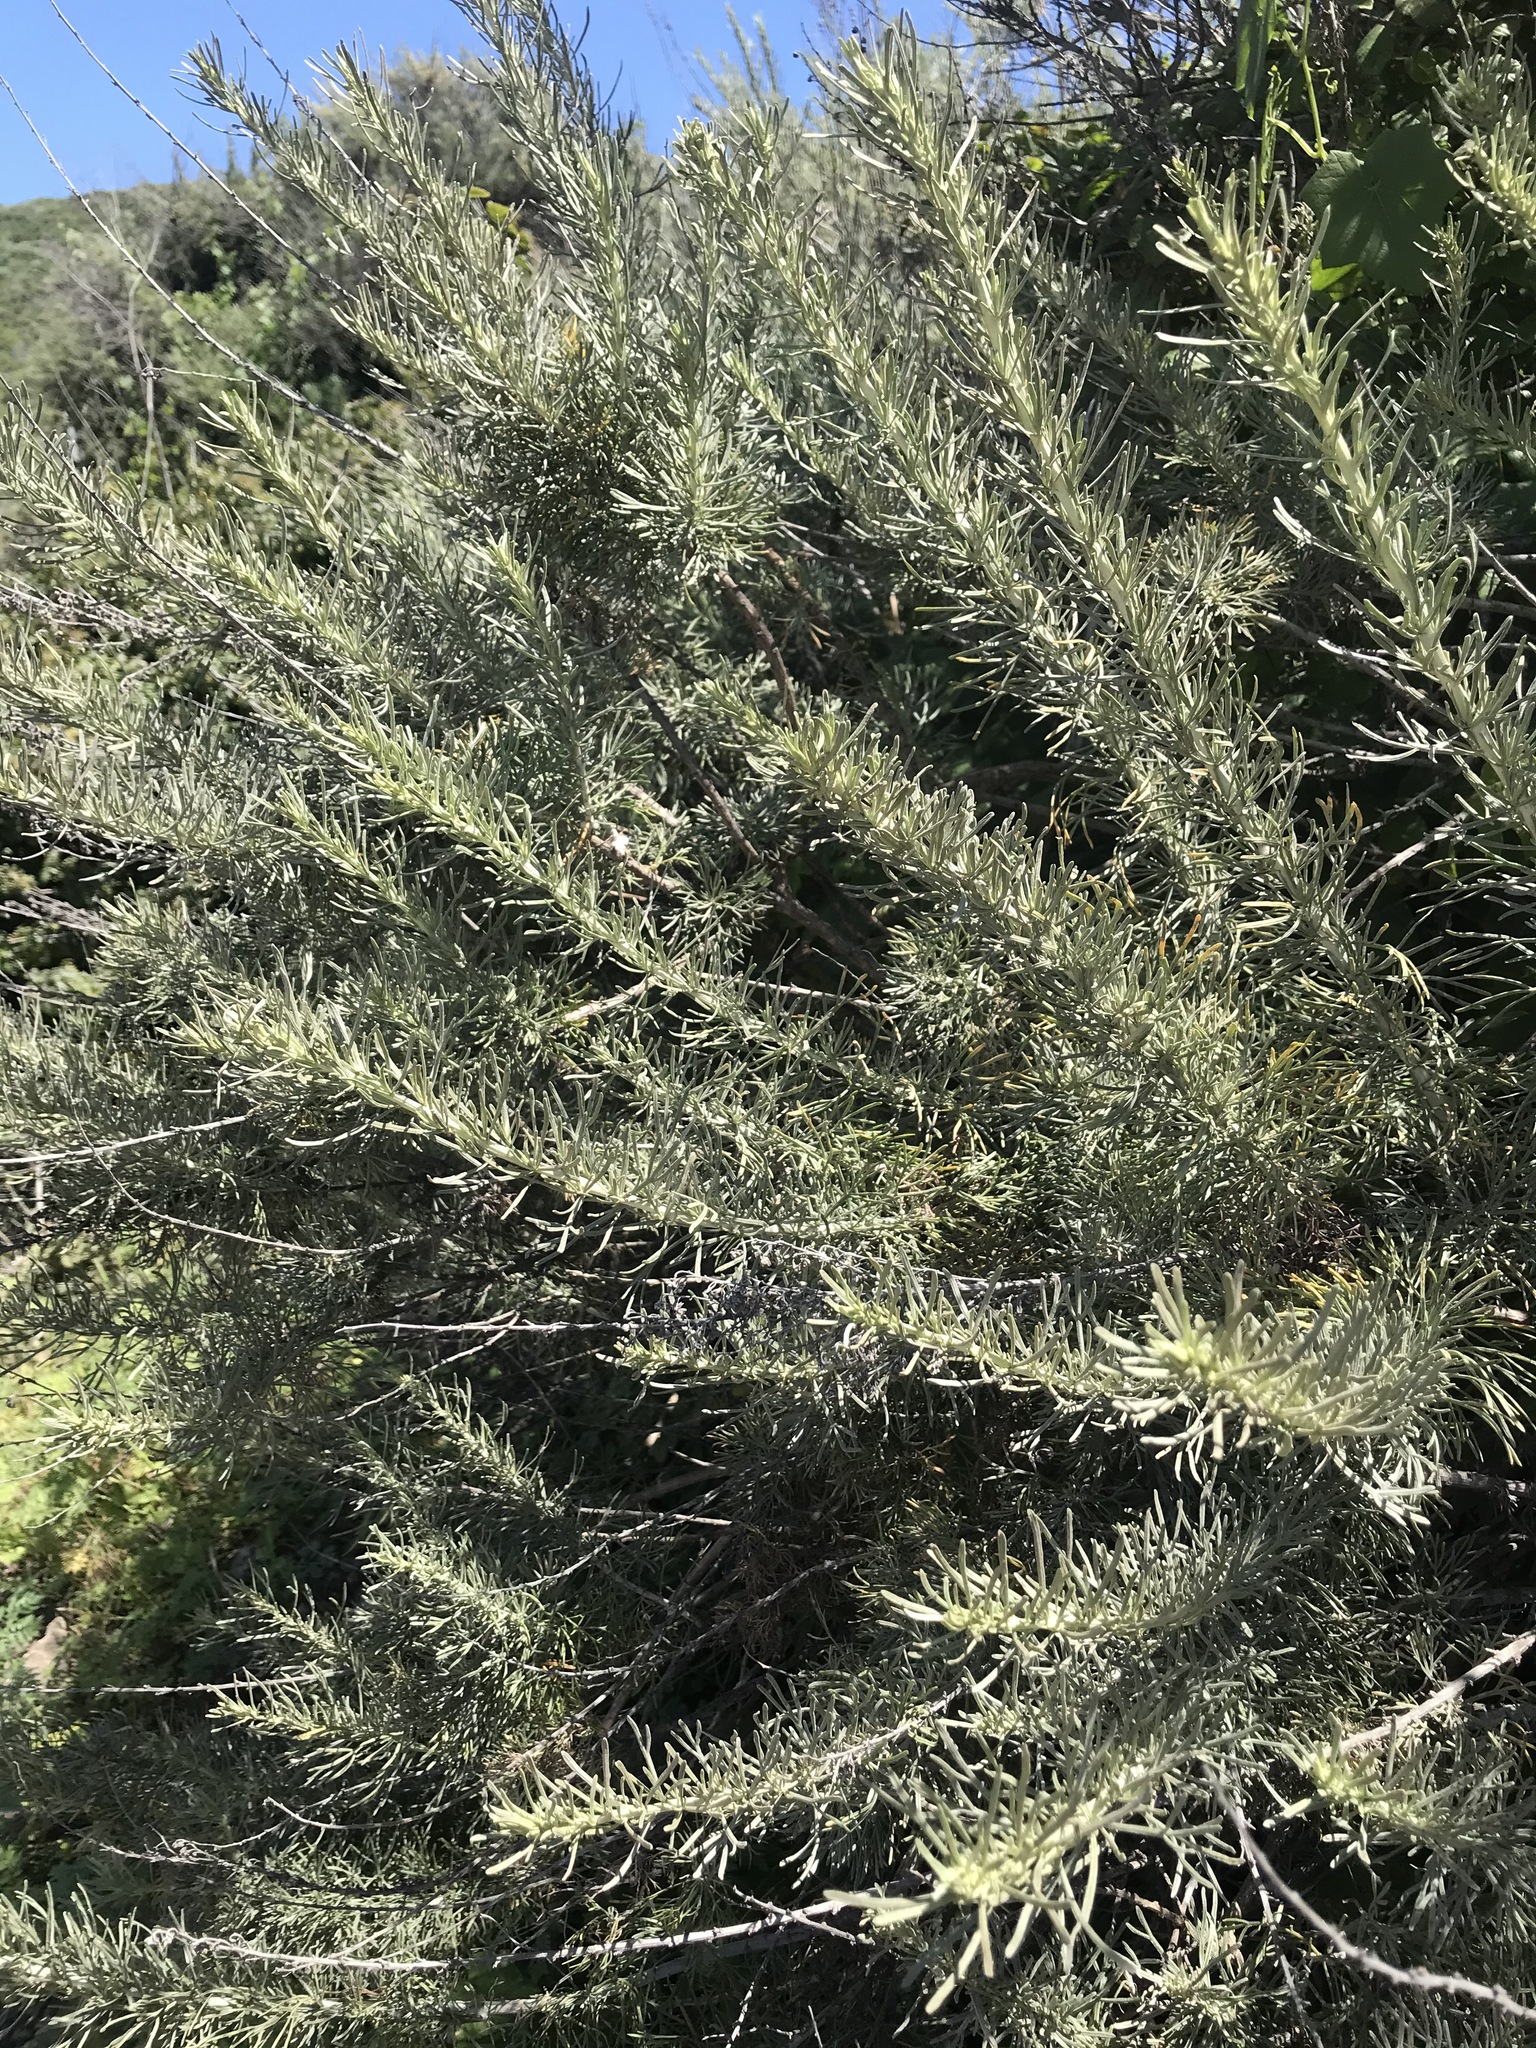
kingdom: Plantae
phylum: Tracheophyta
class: Magnoliopsida
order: Asterales
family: Asteraceae
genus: Artemisia
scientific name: Artemisia californica
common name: California sagebrush
